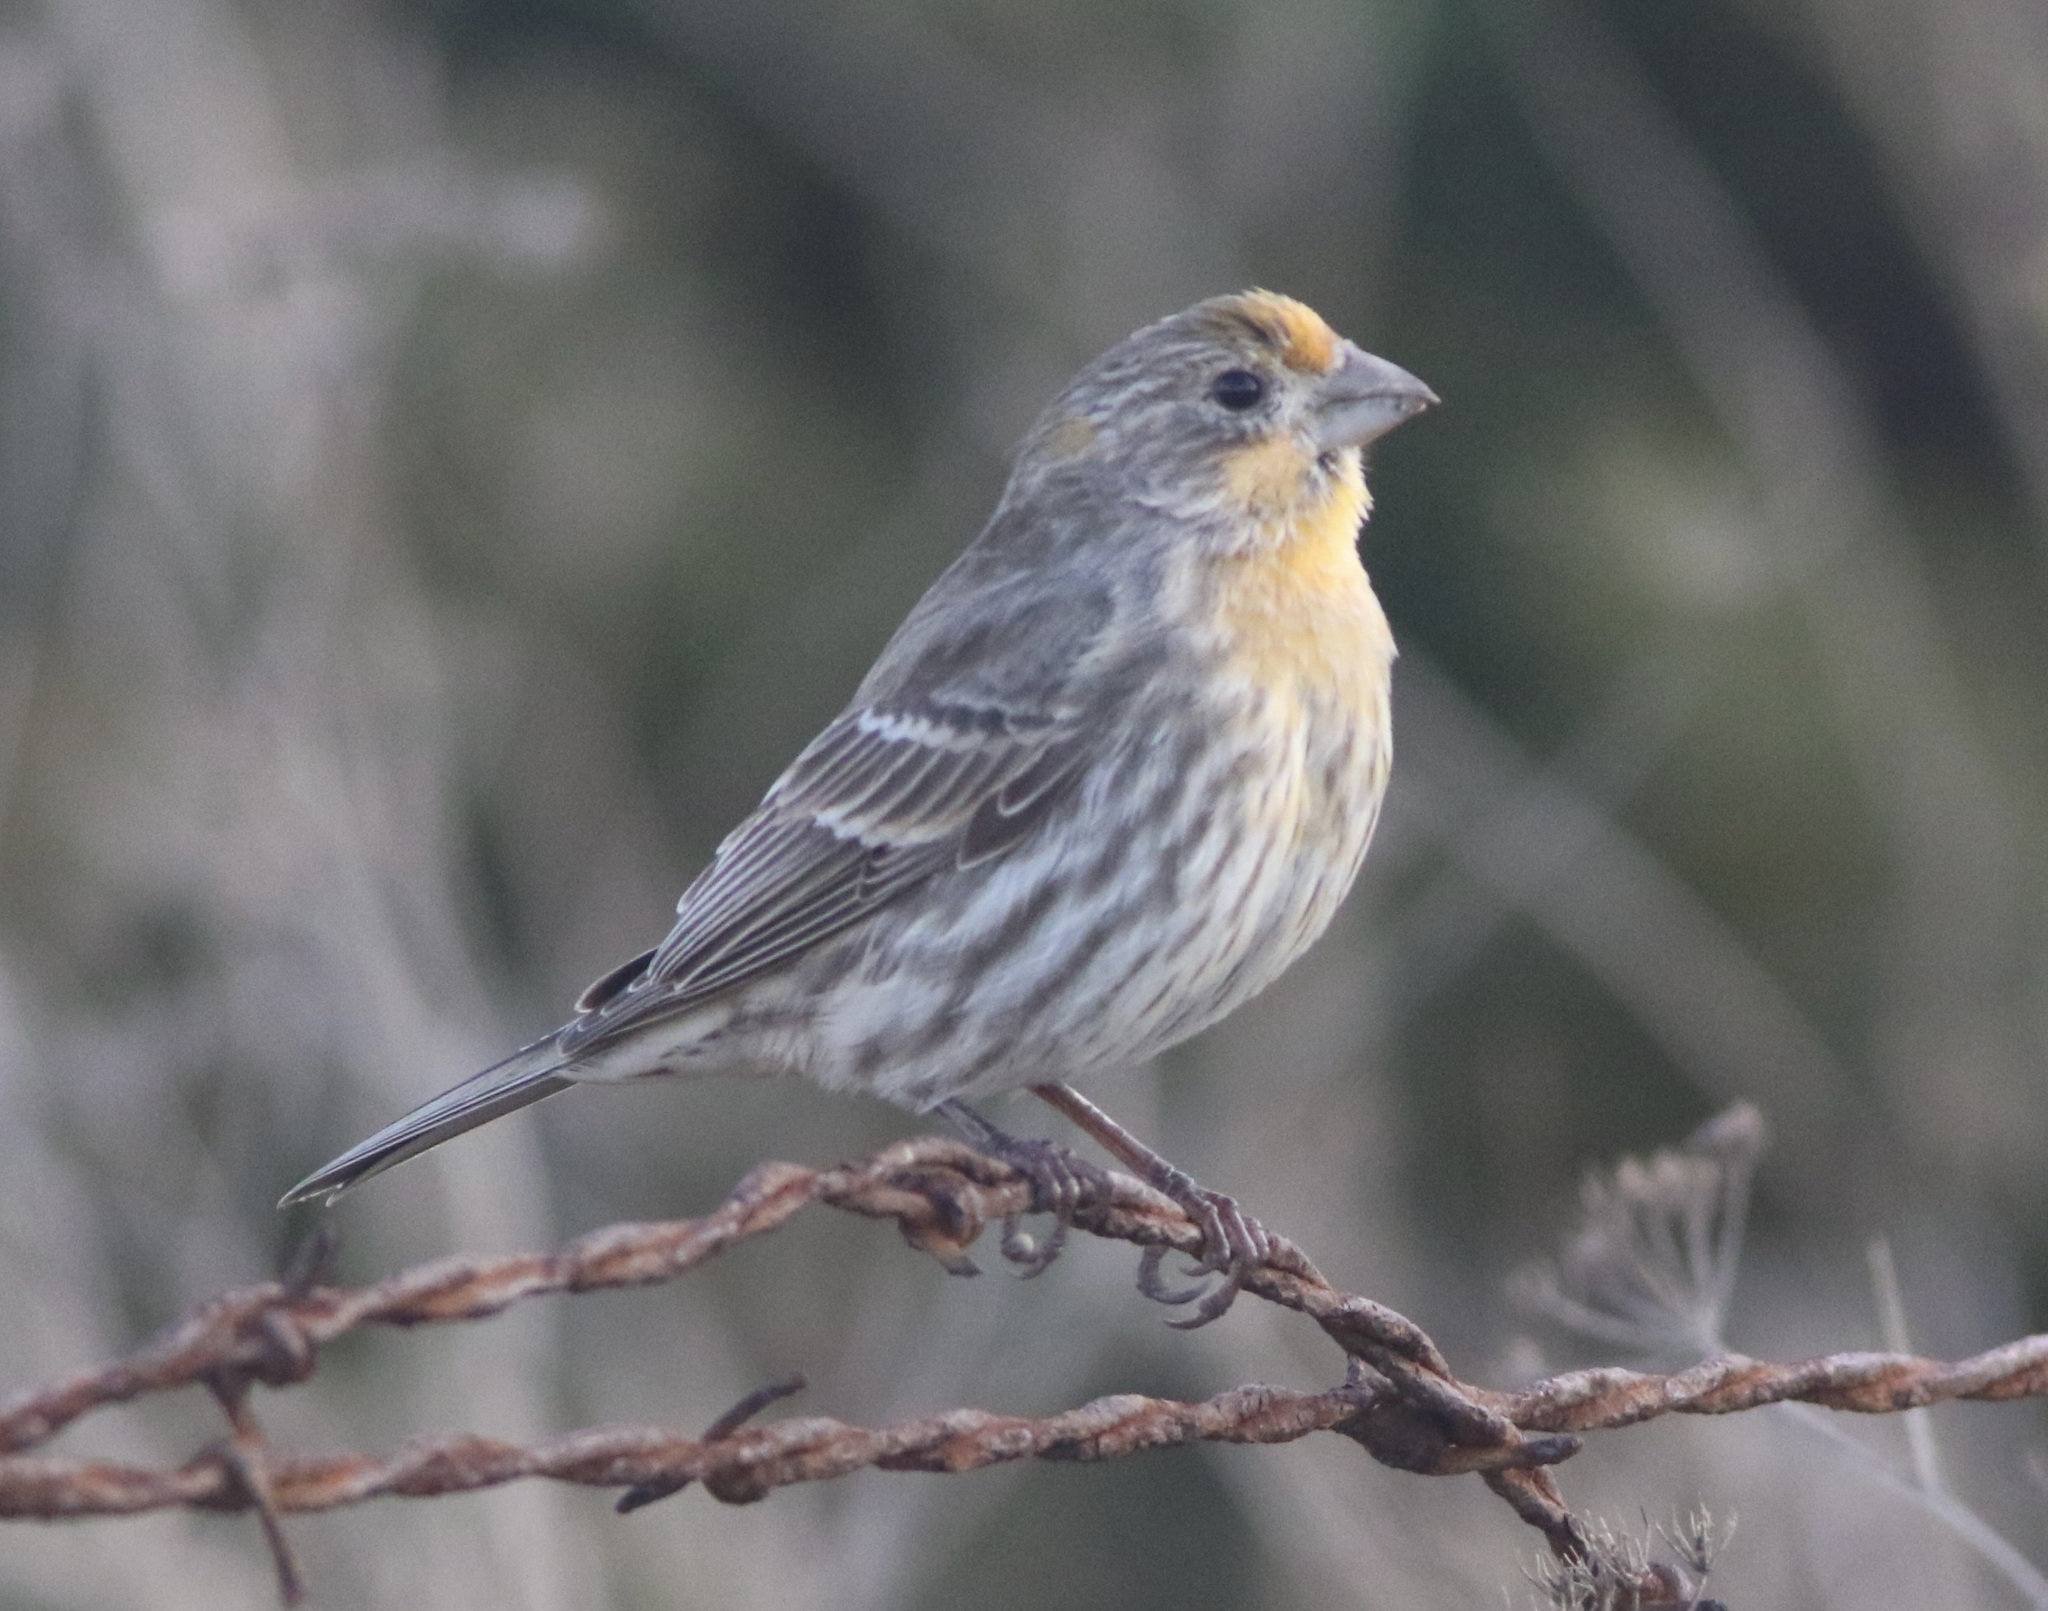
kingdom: Animalia
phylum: Chordata
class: Aves
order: Passeriformes
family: Fringillidae
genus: Haemorhous
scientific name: Haemorhous mexicanus
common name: House finch
